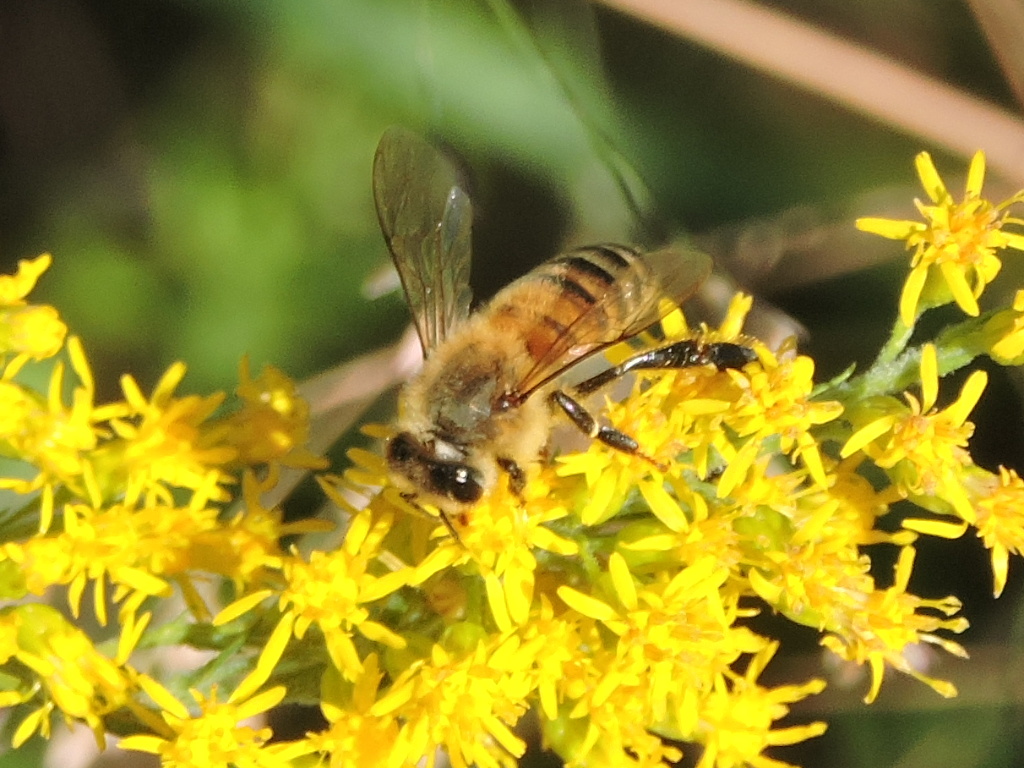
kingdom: Animalia
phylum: Arthropoda
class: Insecta
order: Hymenoptera
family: Apidae
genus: Apis
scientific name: Apis mellifera
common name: Honey bee
